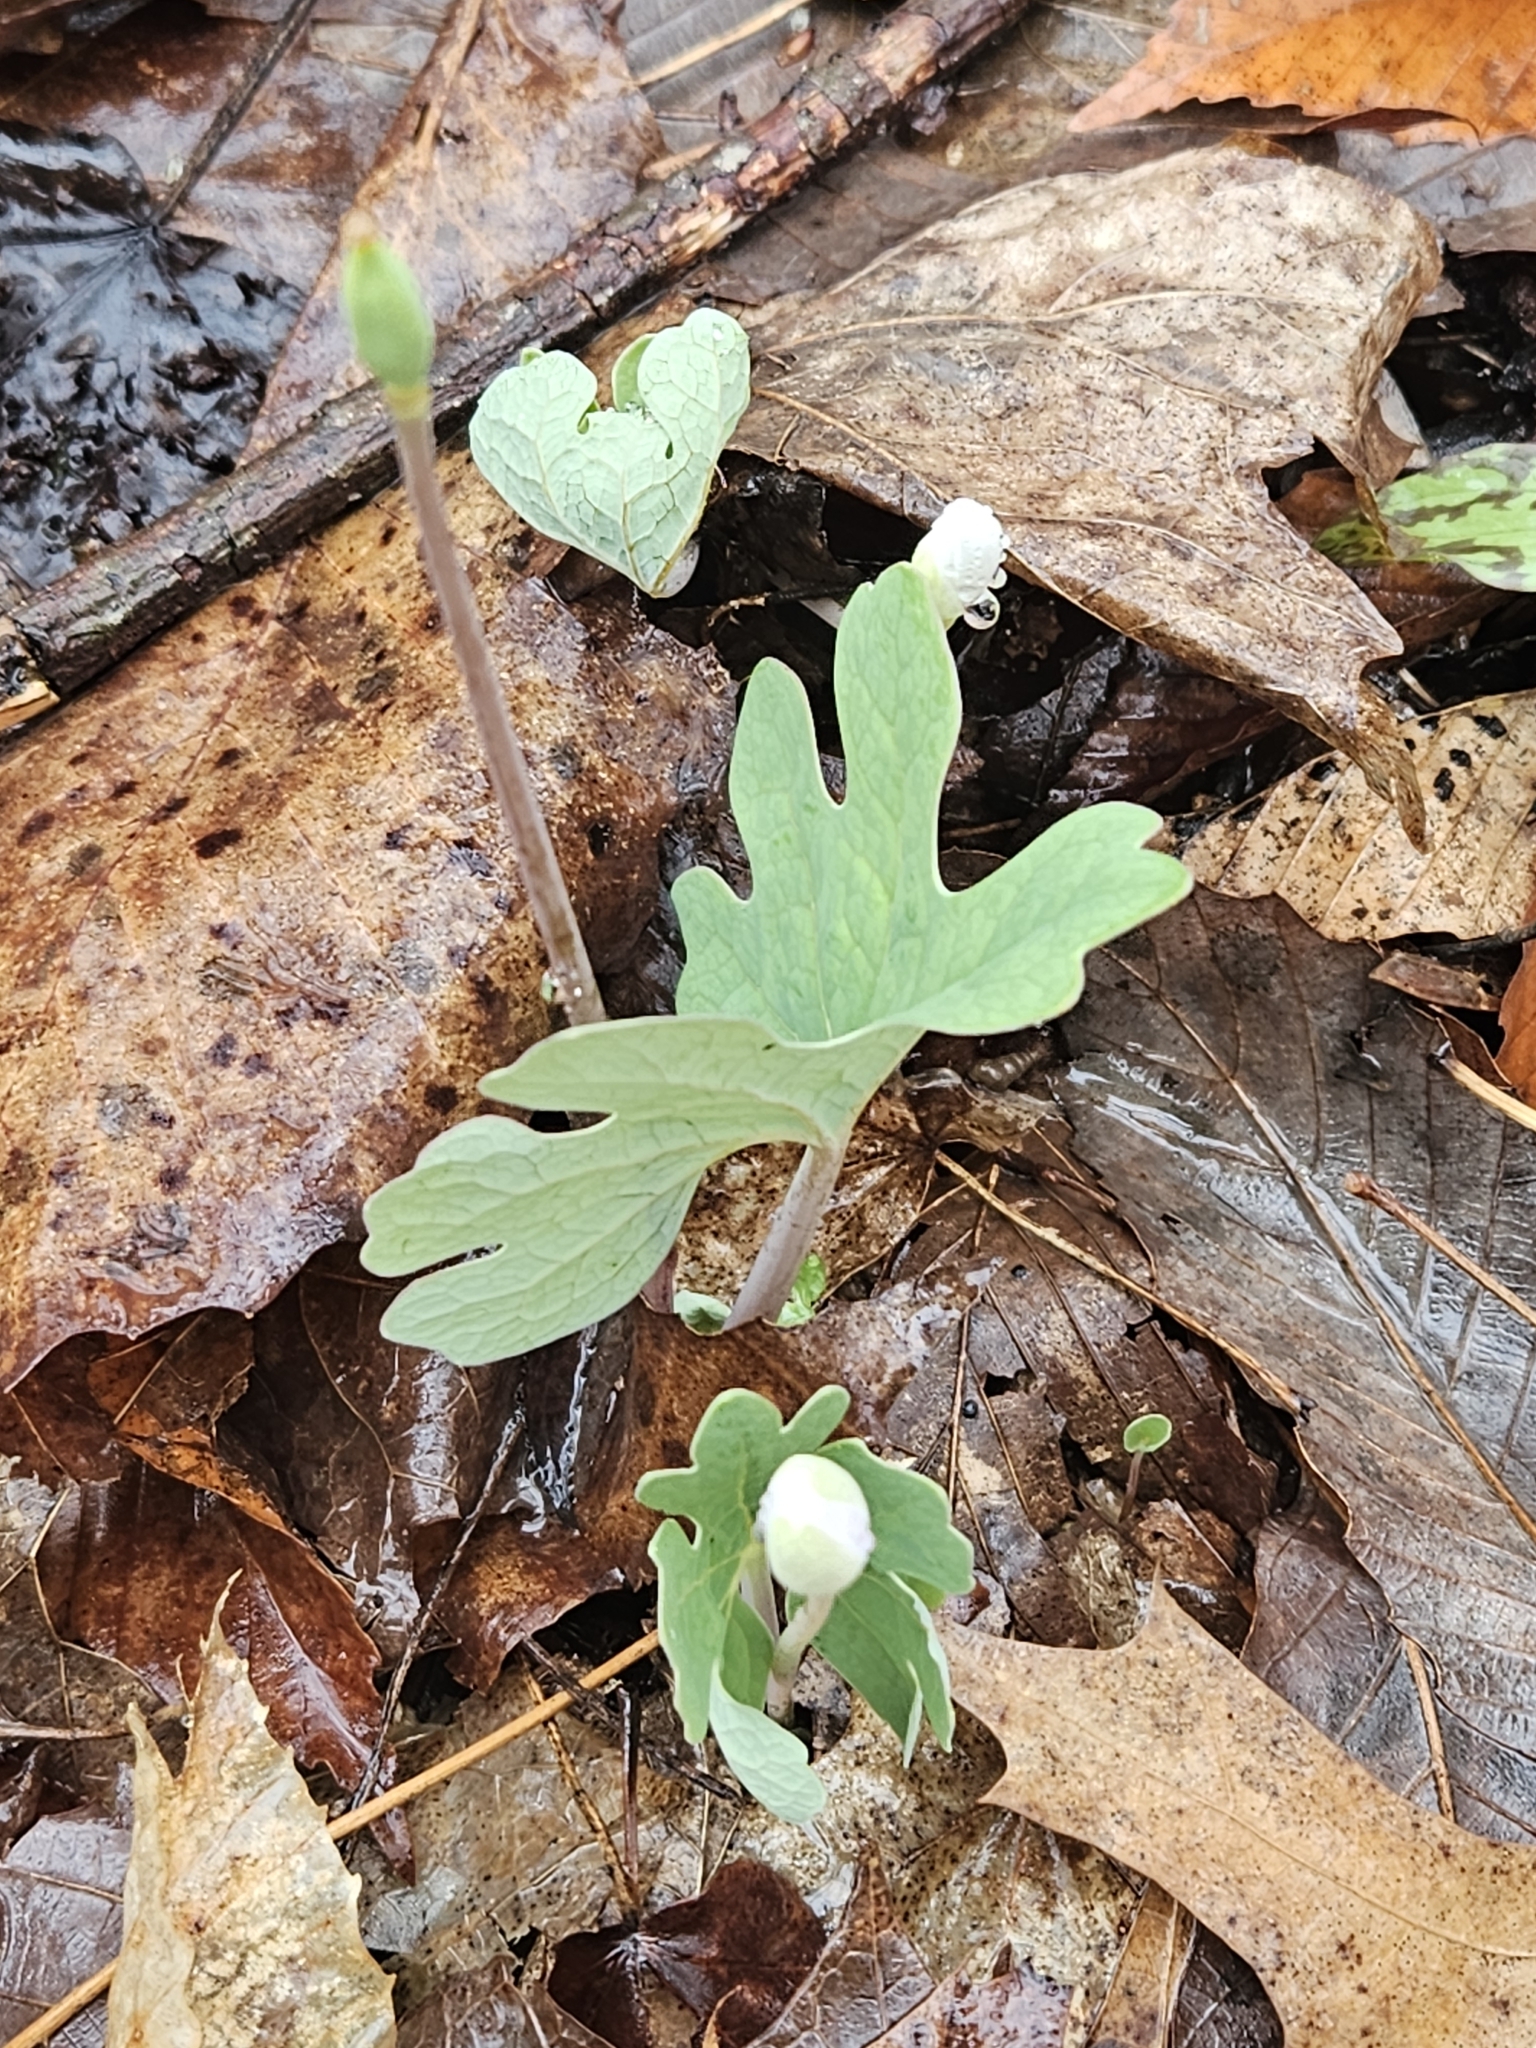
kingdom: Plantae
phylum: Tracheophyta
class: Magnoliopsida
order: Ranunculales
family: Papaveraceae
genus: Sanguinaria
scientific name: Sanguinaria canadensis
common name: Bloodroot
